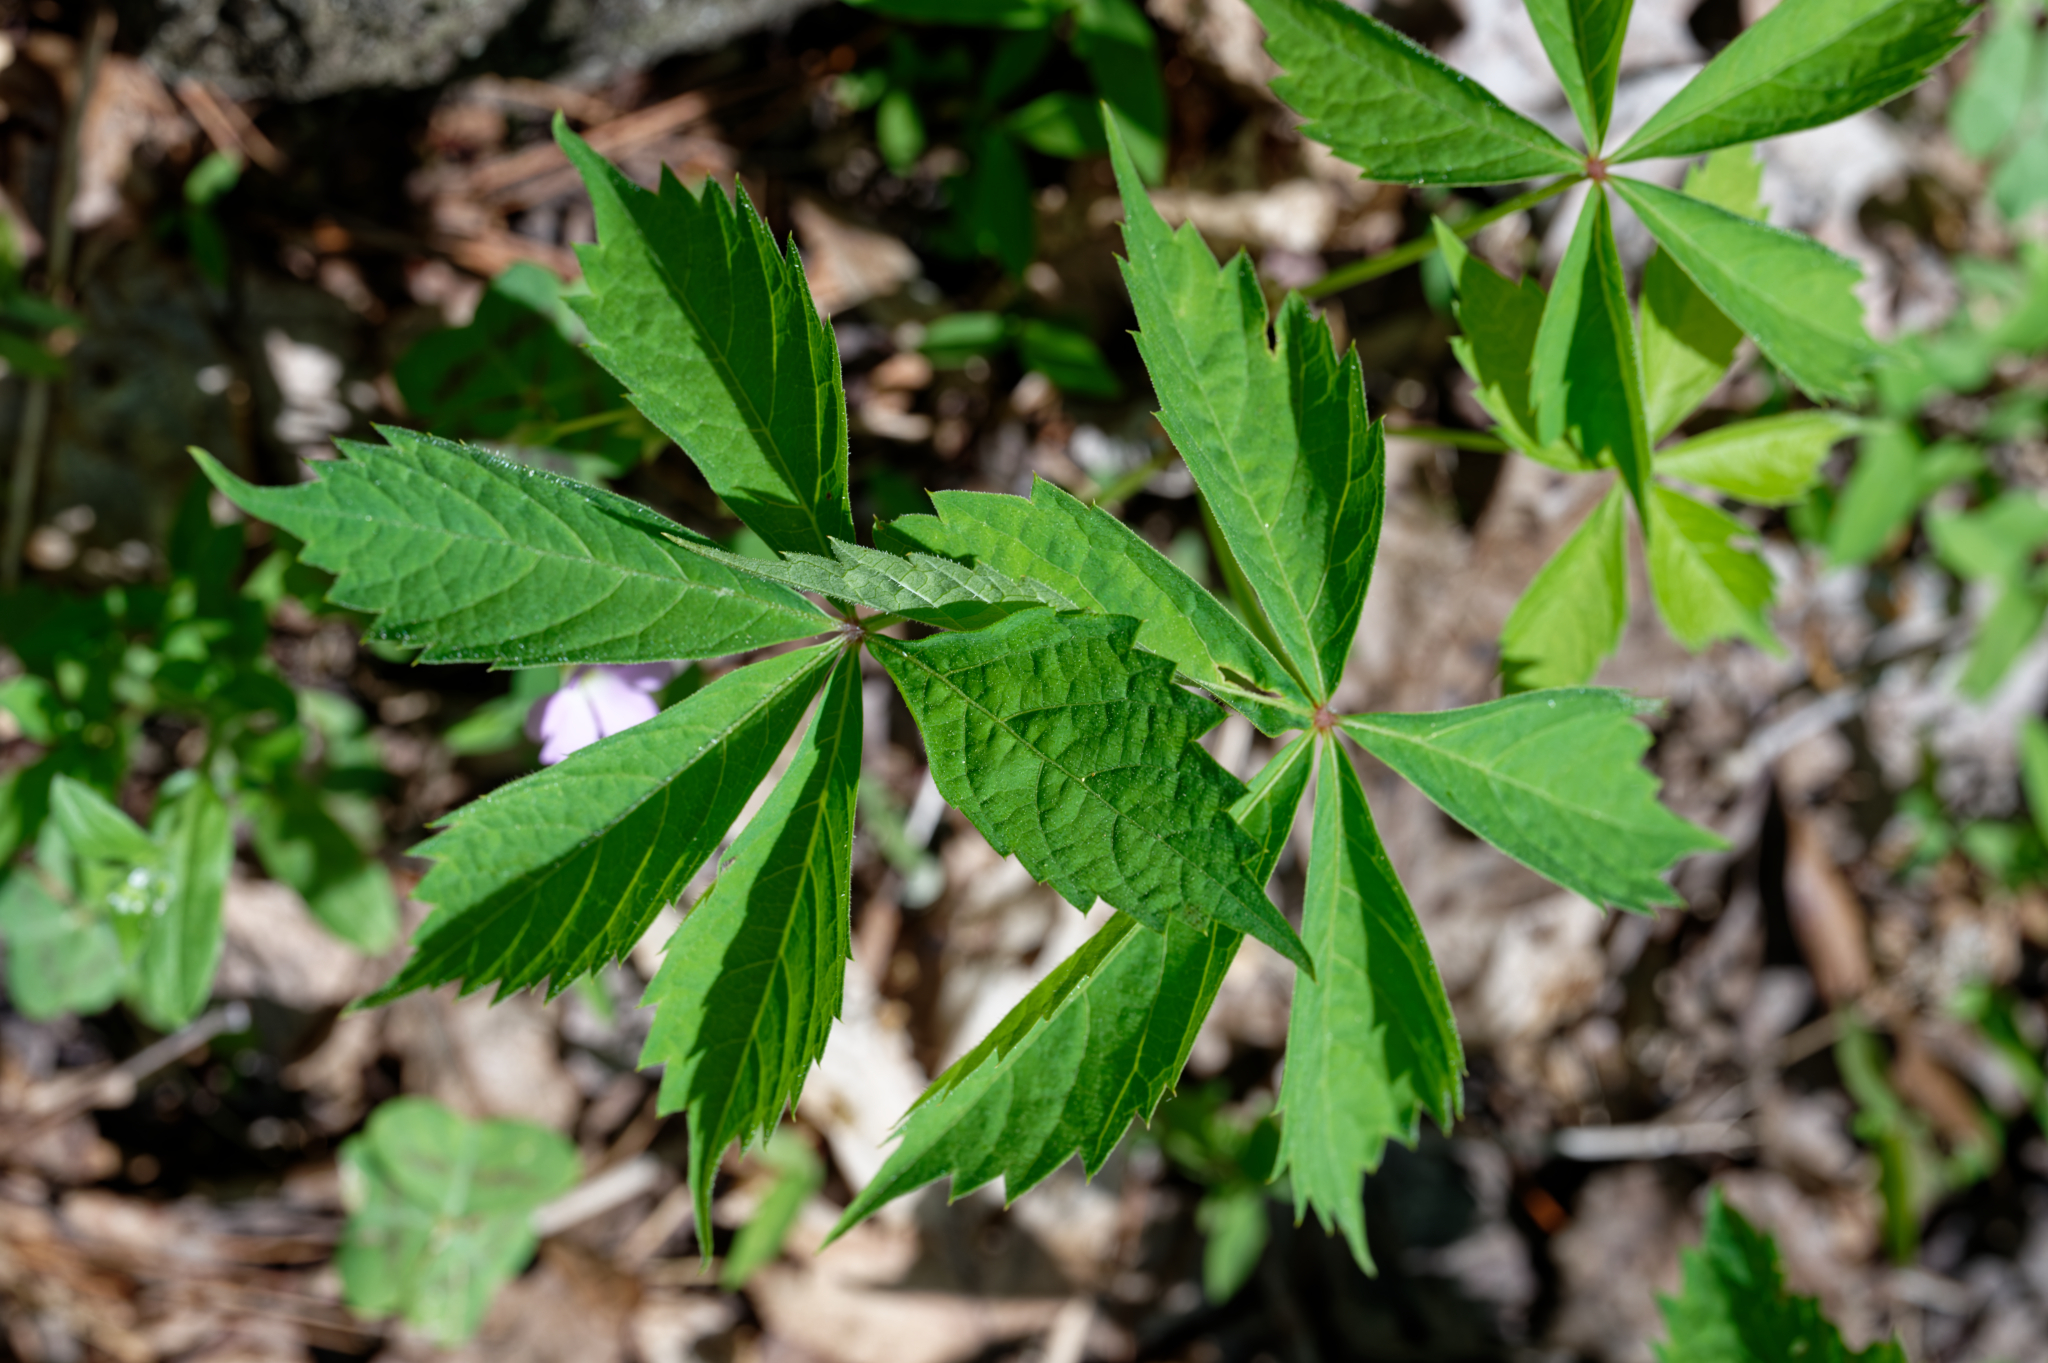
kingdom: Plantae
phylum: Tracheophyta
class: Magnoliopsida
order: Vitales
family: Vitaceae
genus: Parthenocissus
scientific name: Parthenocissus quinquefolia
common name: Virginia-creeper
